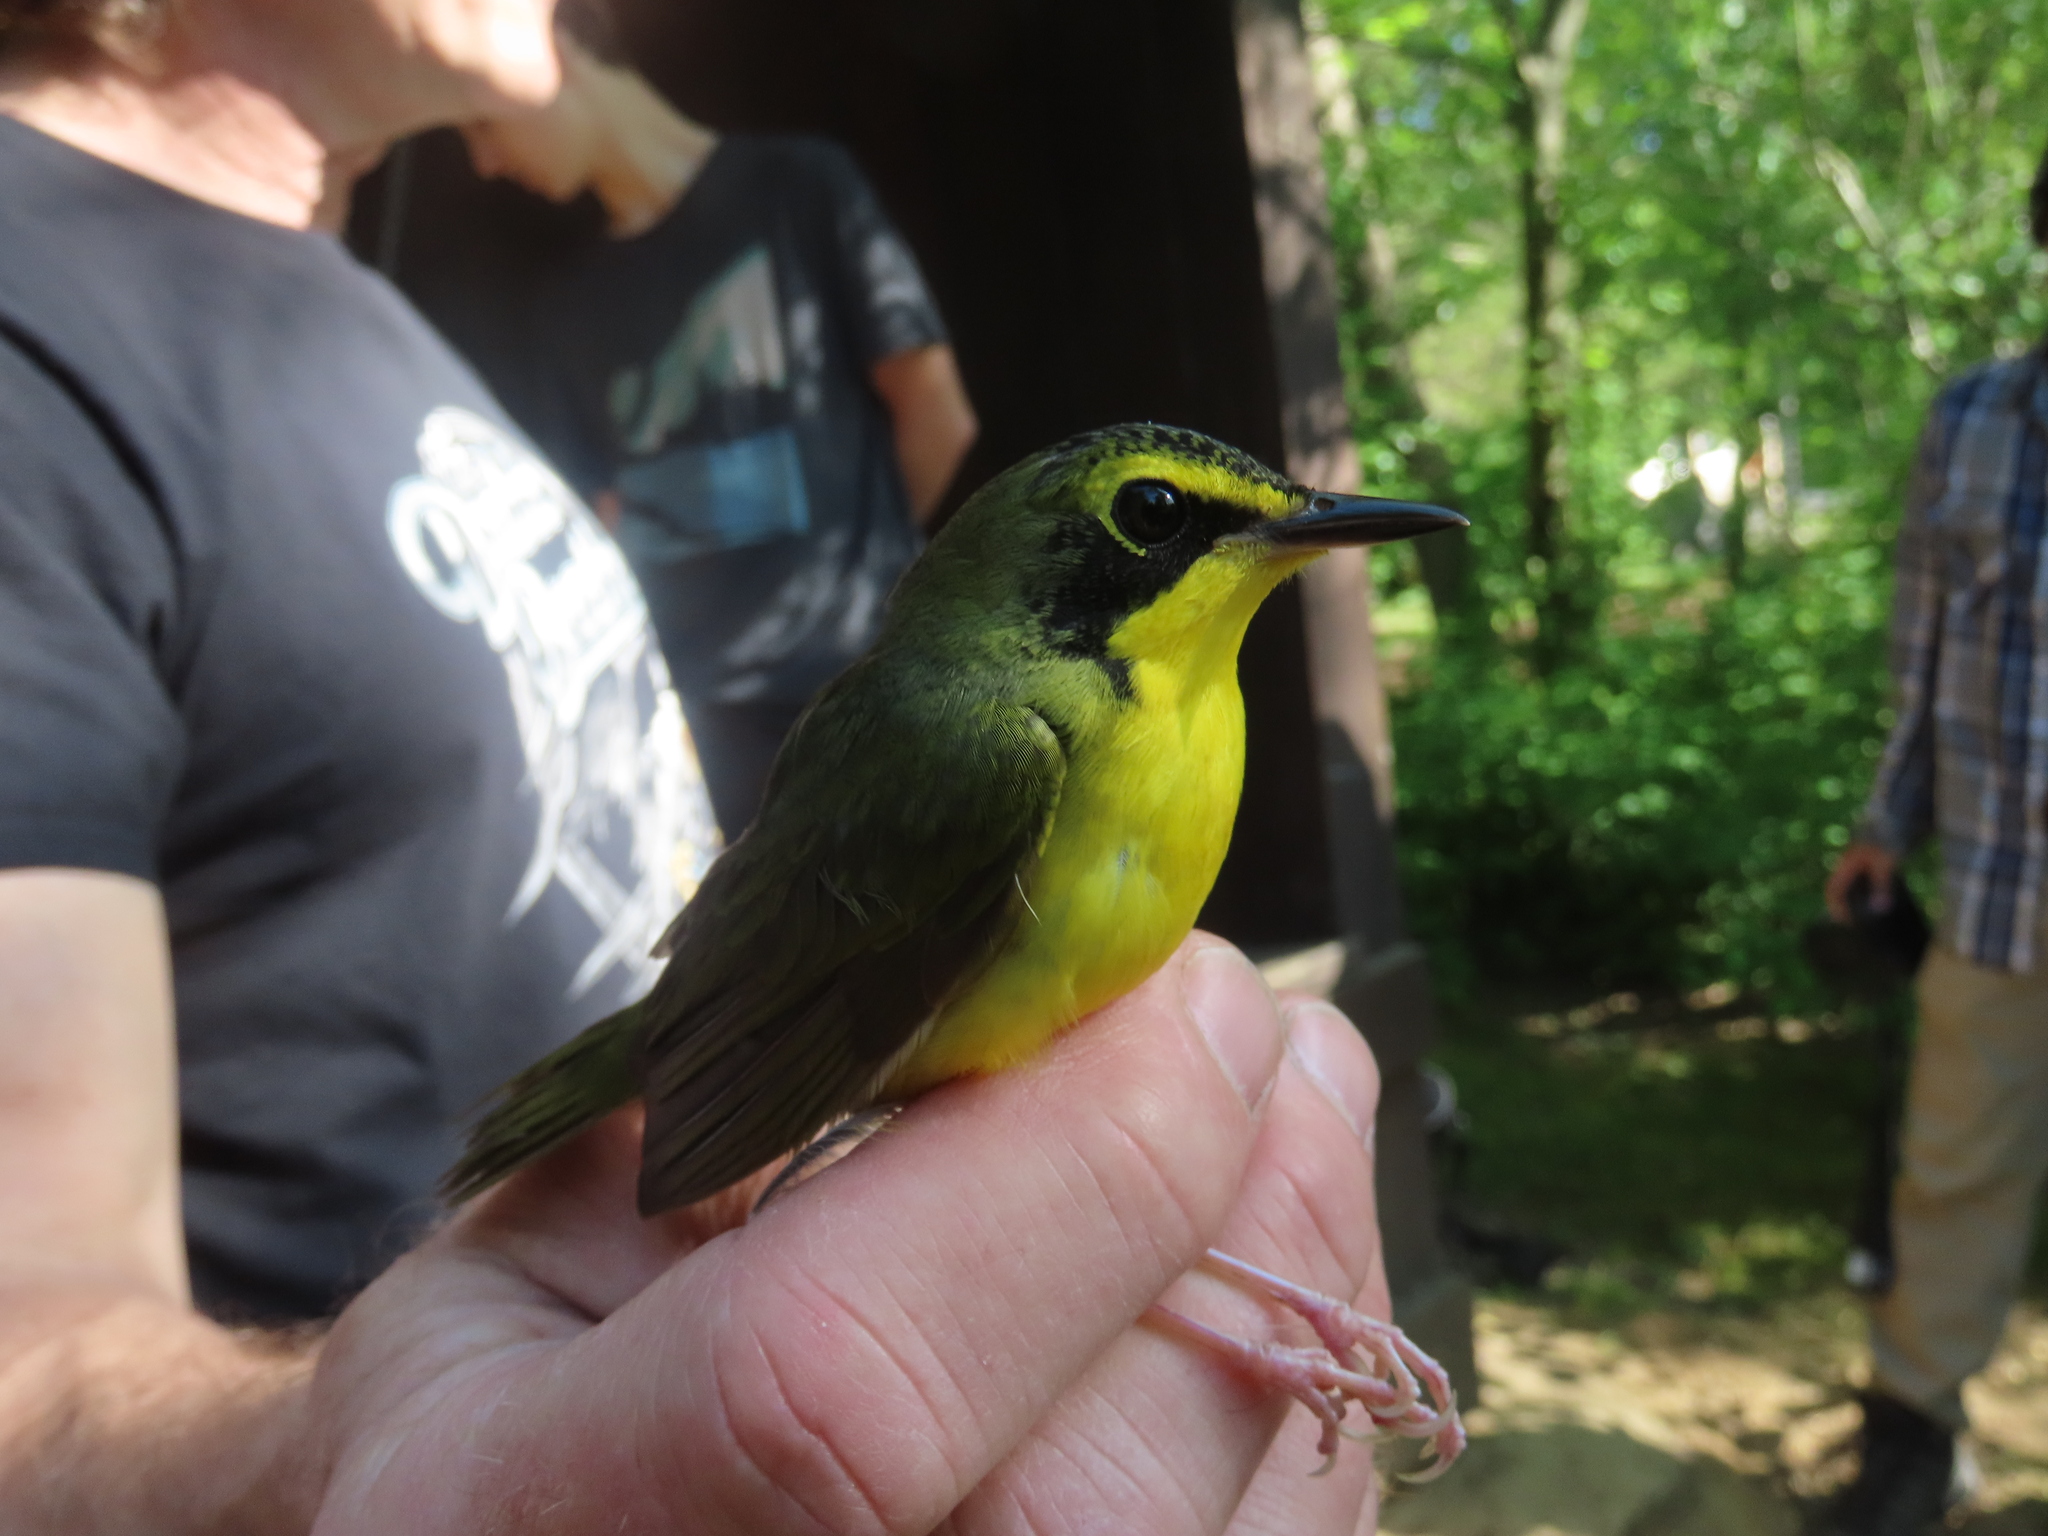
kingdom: Animalia
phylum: Chordata
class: Aves
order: Passeriformes
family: Parulidae
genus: Geothlypis
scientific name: Geothlypis formosa
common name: Kentucky warbler
